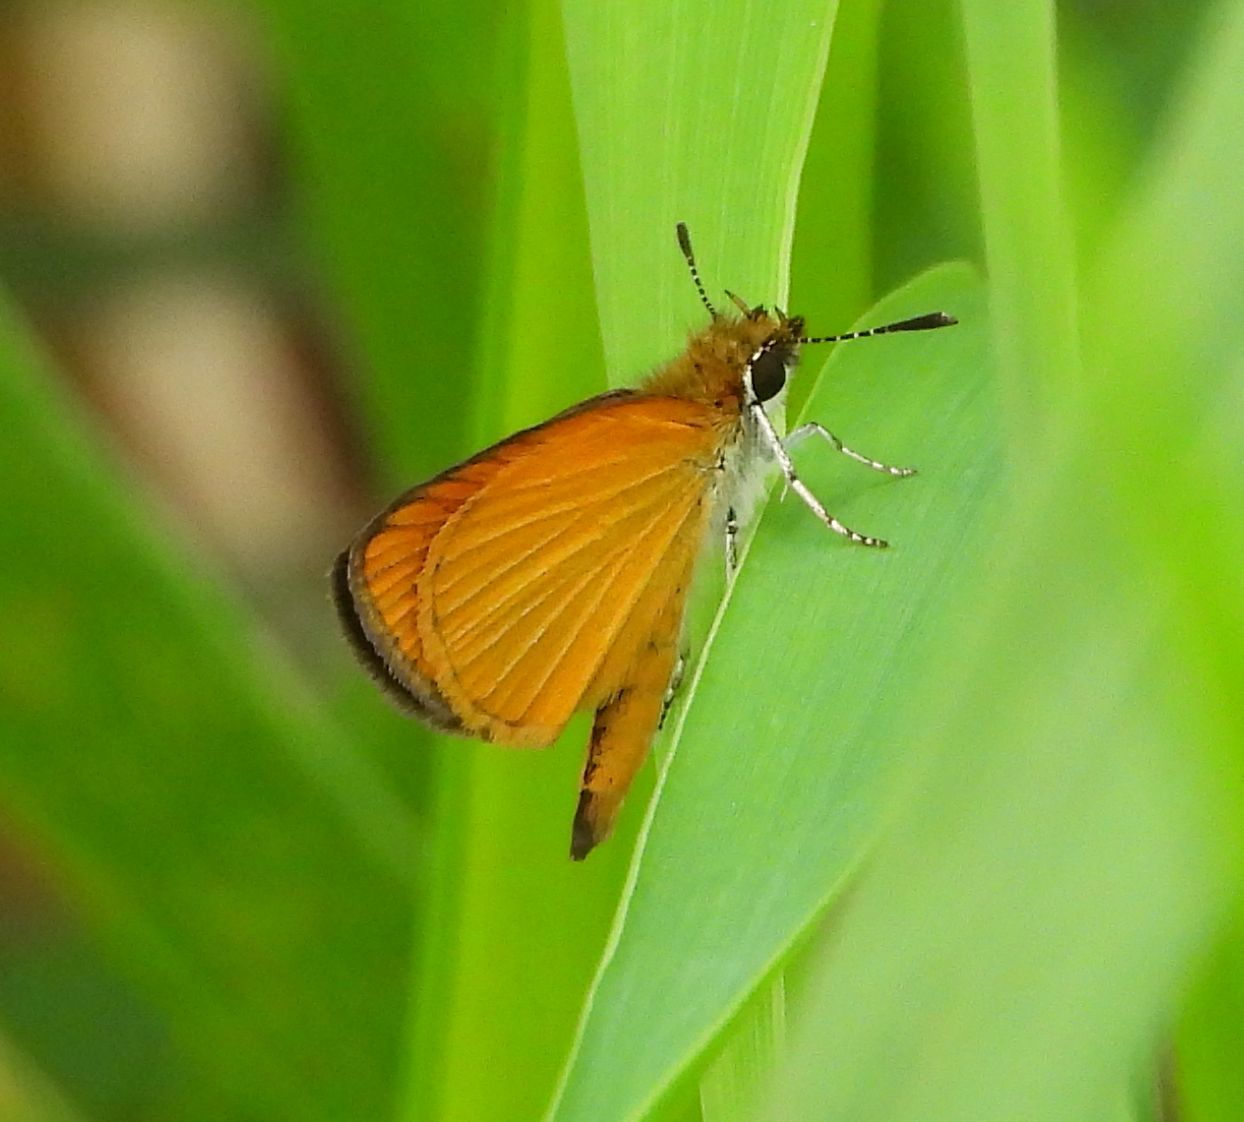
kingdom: Animalia
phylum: Arthropoda
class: Insecta
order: Lepidoptera
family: Hesperiidae
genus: Ancyloxypha
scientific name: Ancyloxypha numitor
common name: Least skipper
